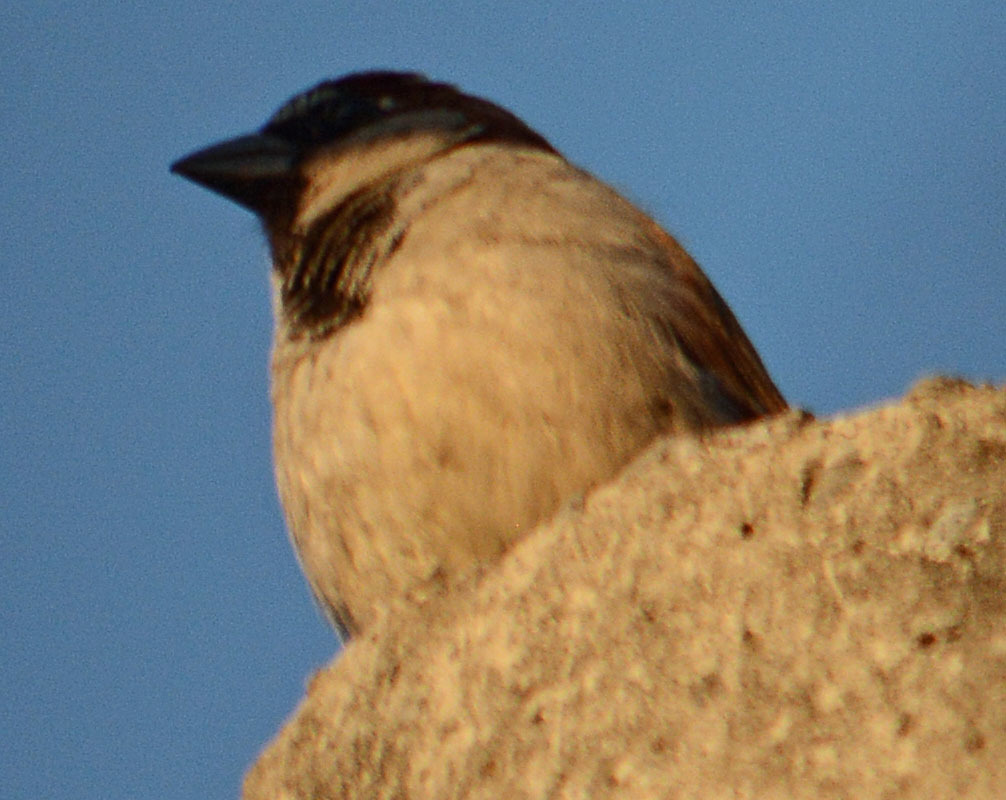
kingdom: Animalia
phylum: Chordata
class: Aves
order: Passeriformes
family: Passeridae
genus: Passer
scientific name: Passer domesticus
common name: House sparrow
